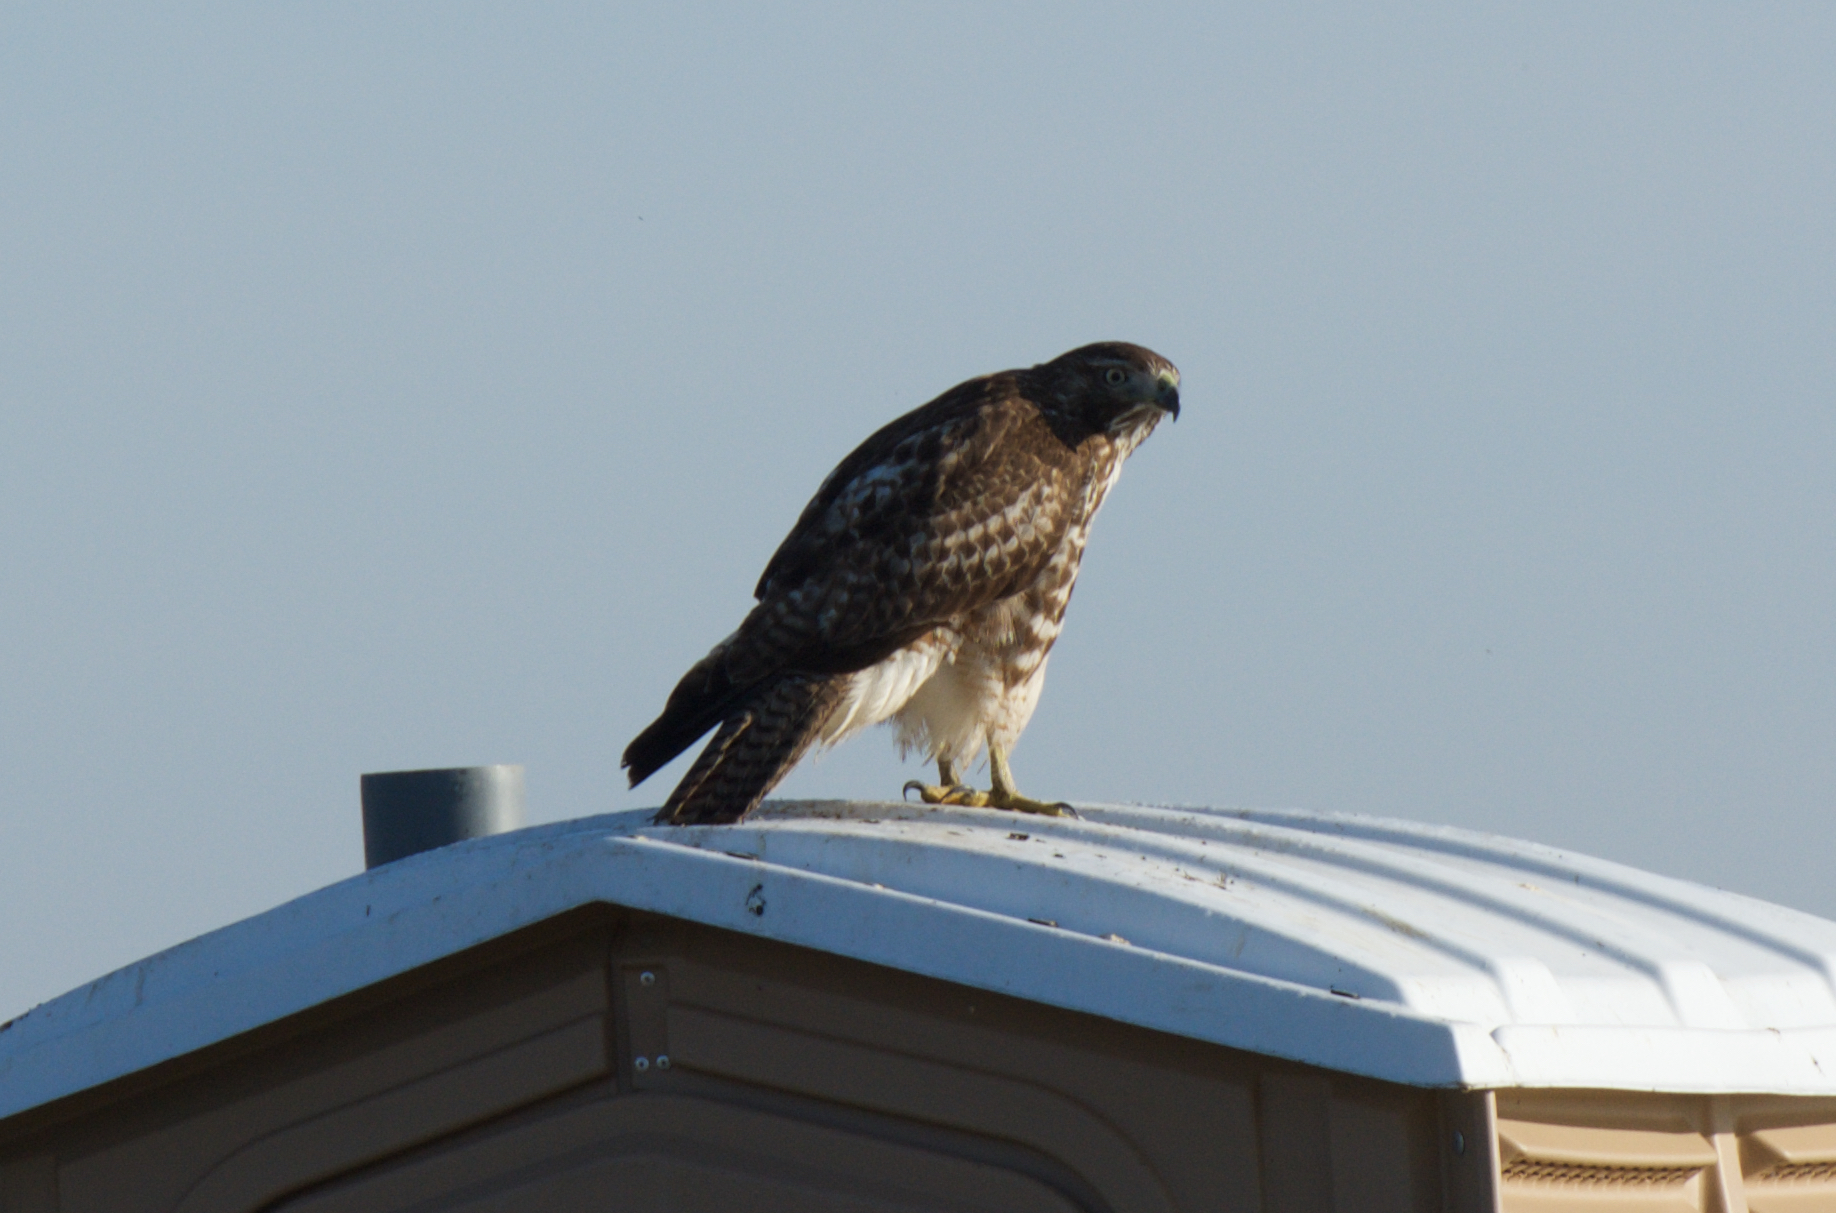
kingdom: Animalia
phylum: Chordata
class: Aves
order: Accipitriformes
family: Accipitridae
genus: Buteo
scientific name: Buteo jamaicensis
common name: Red-tailed hawk
